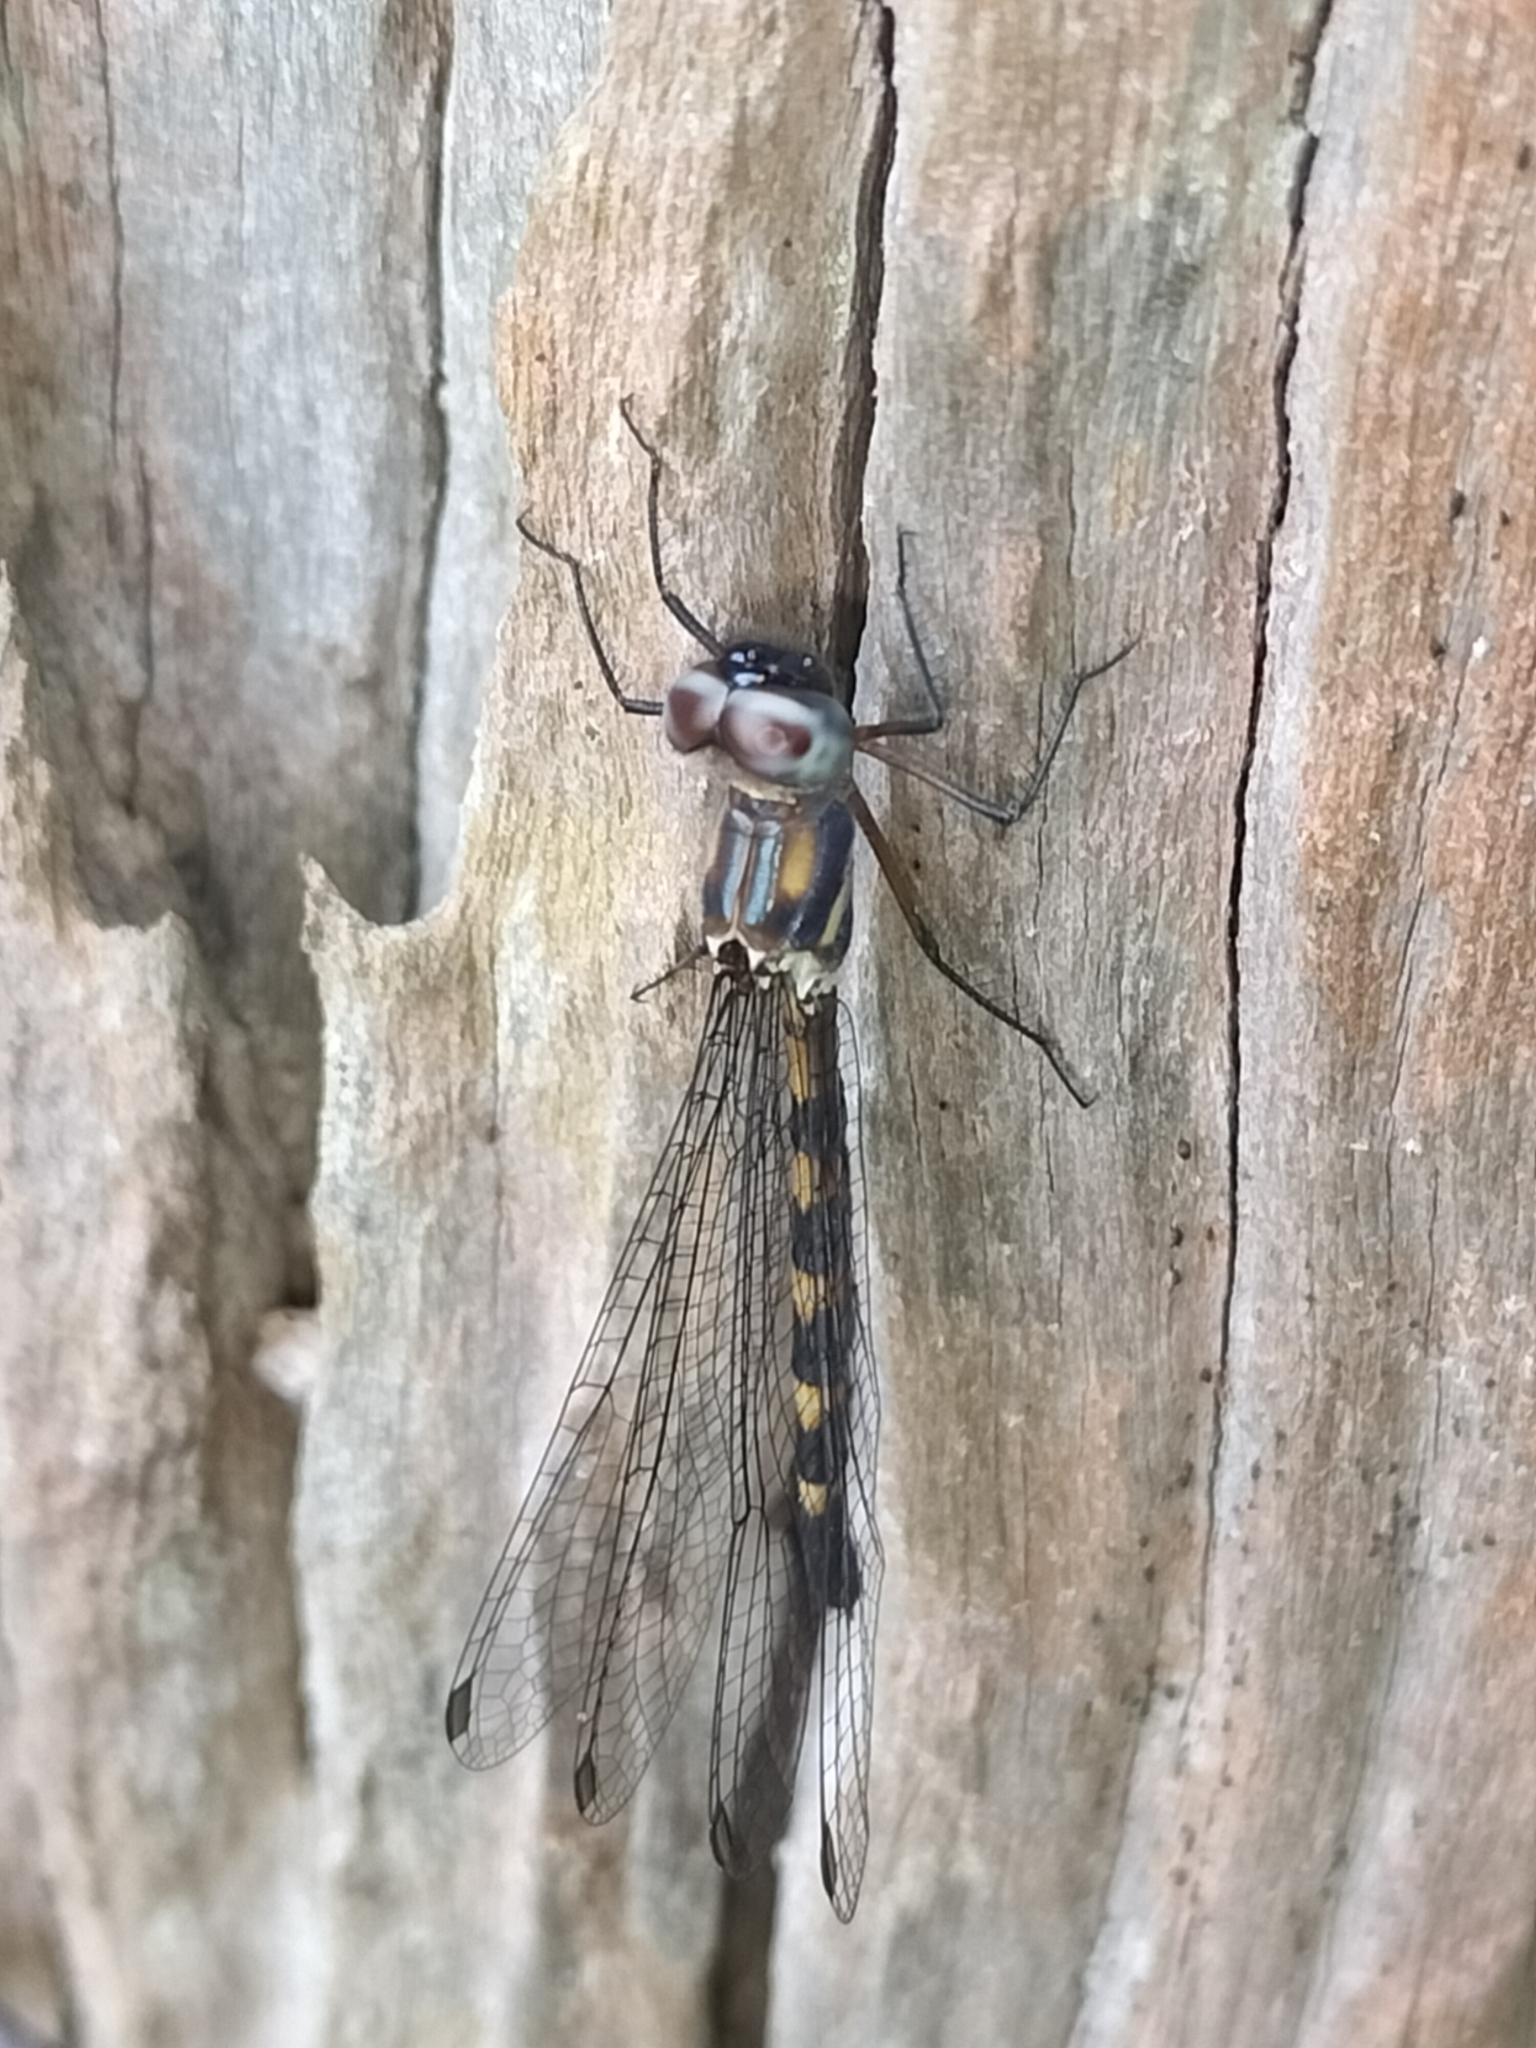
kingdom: Animalia
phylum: Arthropoda
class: Insecta
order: Odonata
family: Corduliidae
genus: Cordulephya
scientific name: Cordulephya bidens
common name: Tropical shutwing
